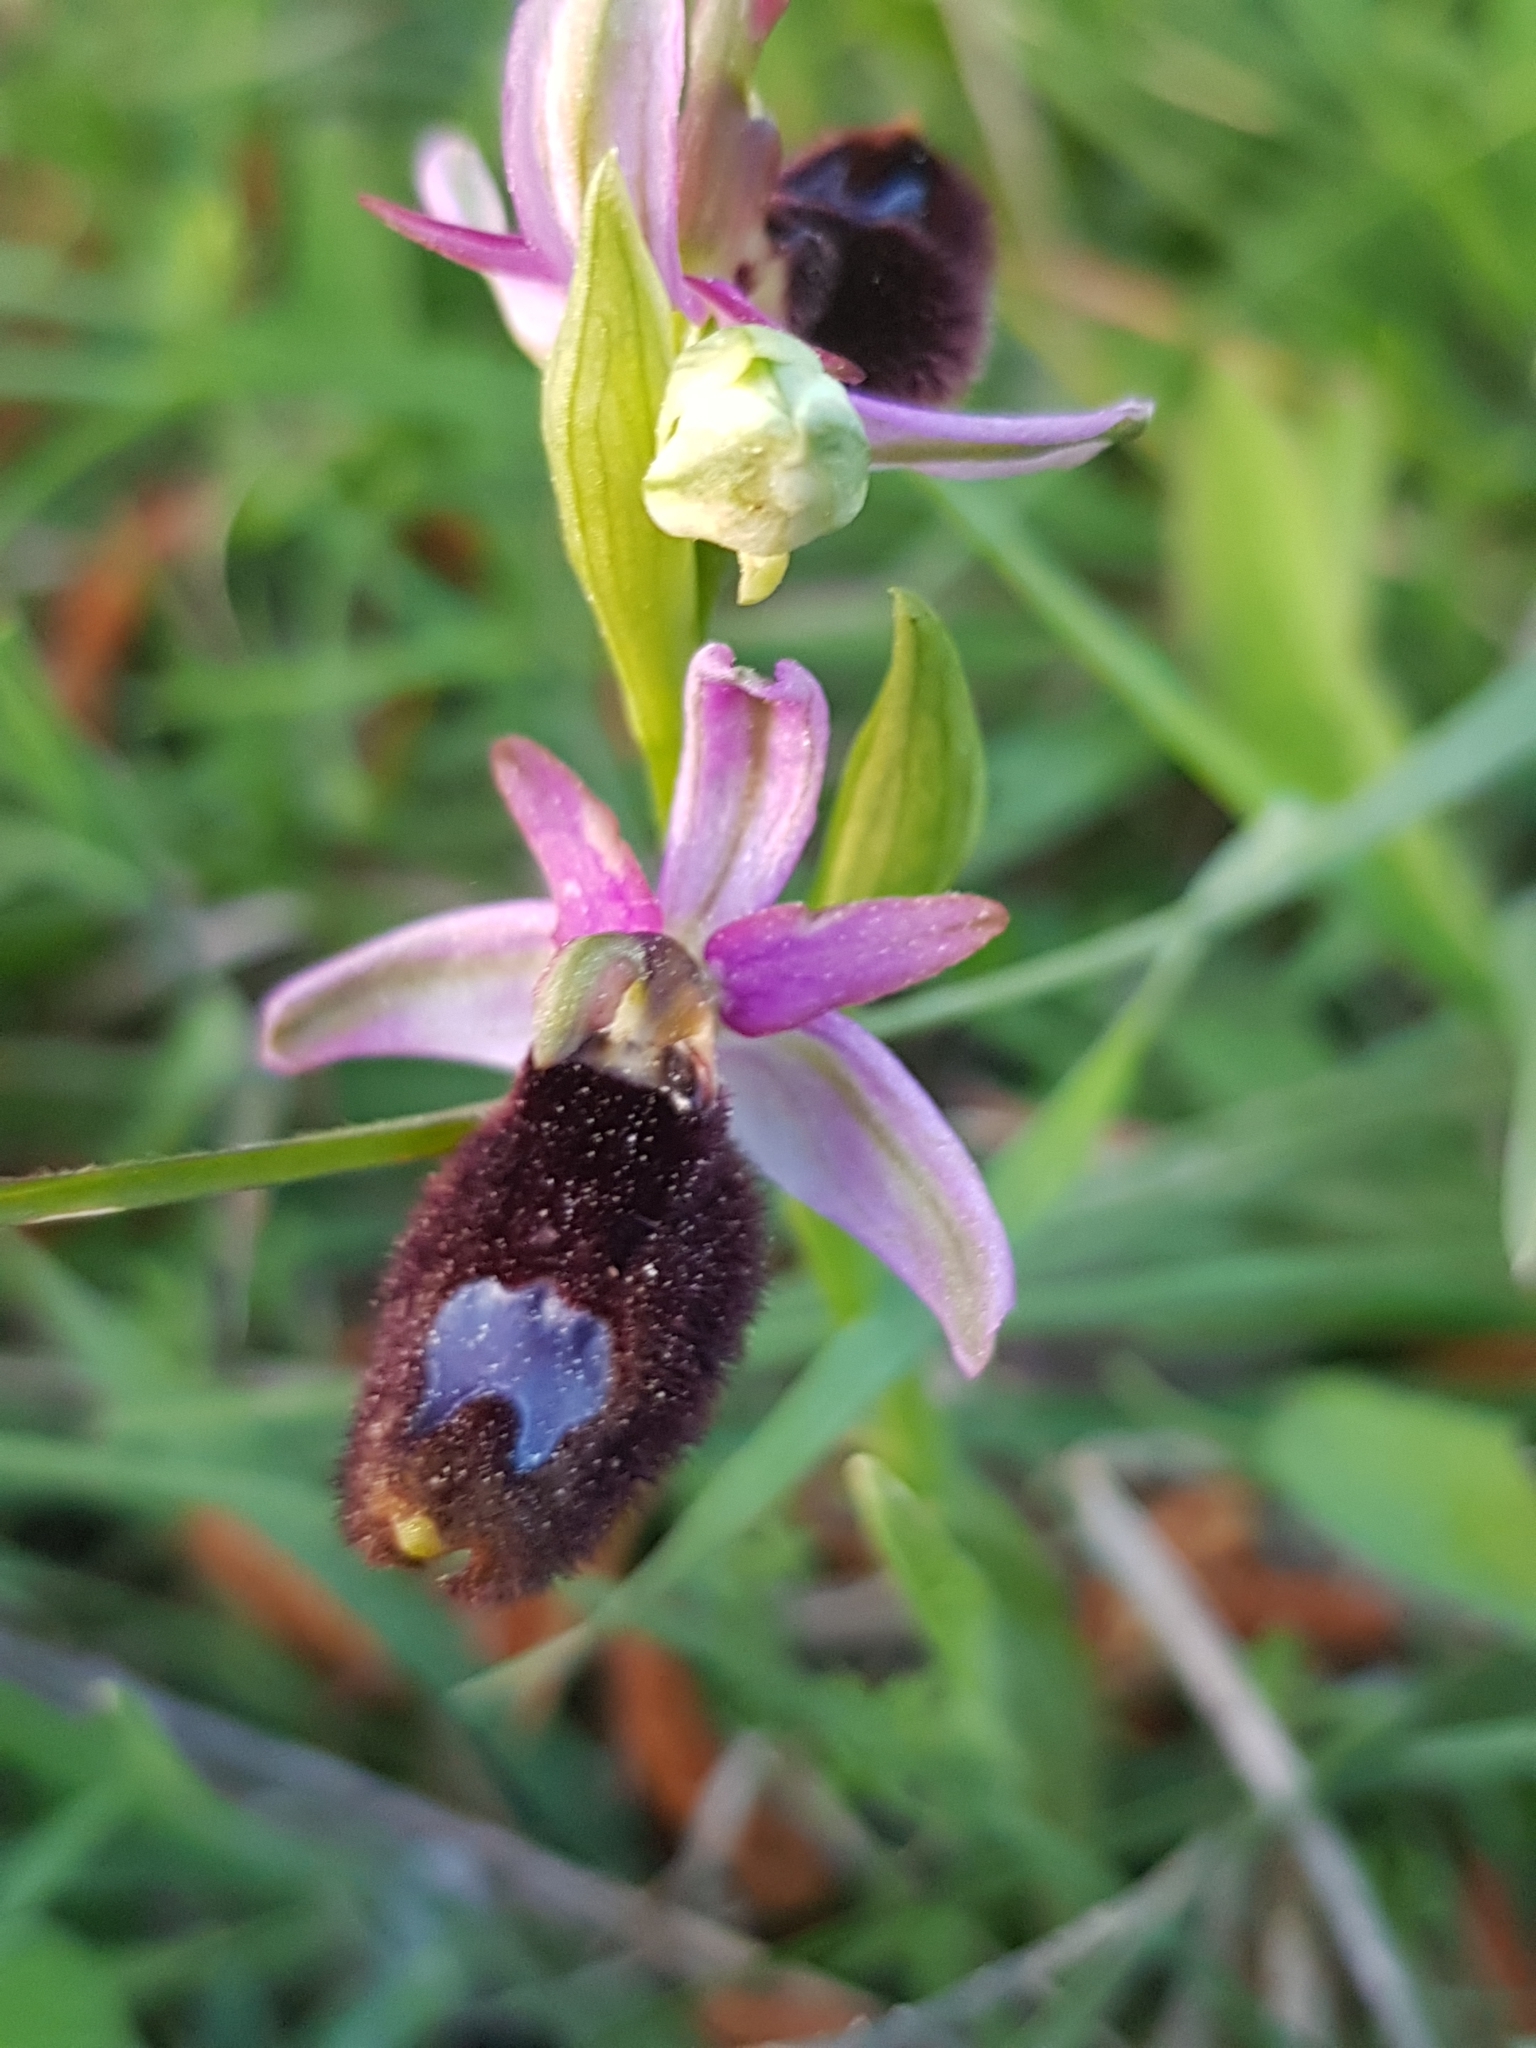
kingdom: Plantae
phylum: Tracheophyta
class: Liliopsida
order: Asparagales
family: Orchidaceae
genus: Ophrys
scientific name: Ophrys bertolonii
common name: Bertoloni's bee orchid
